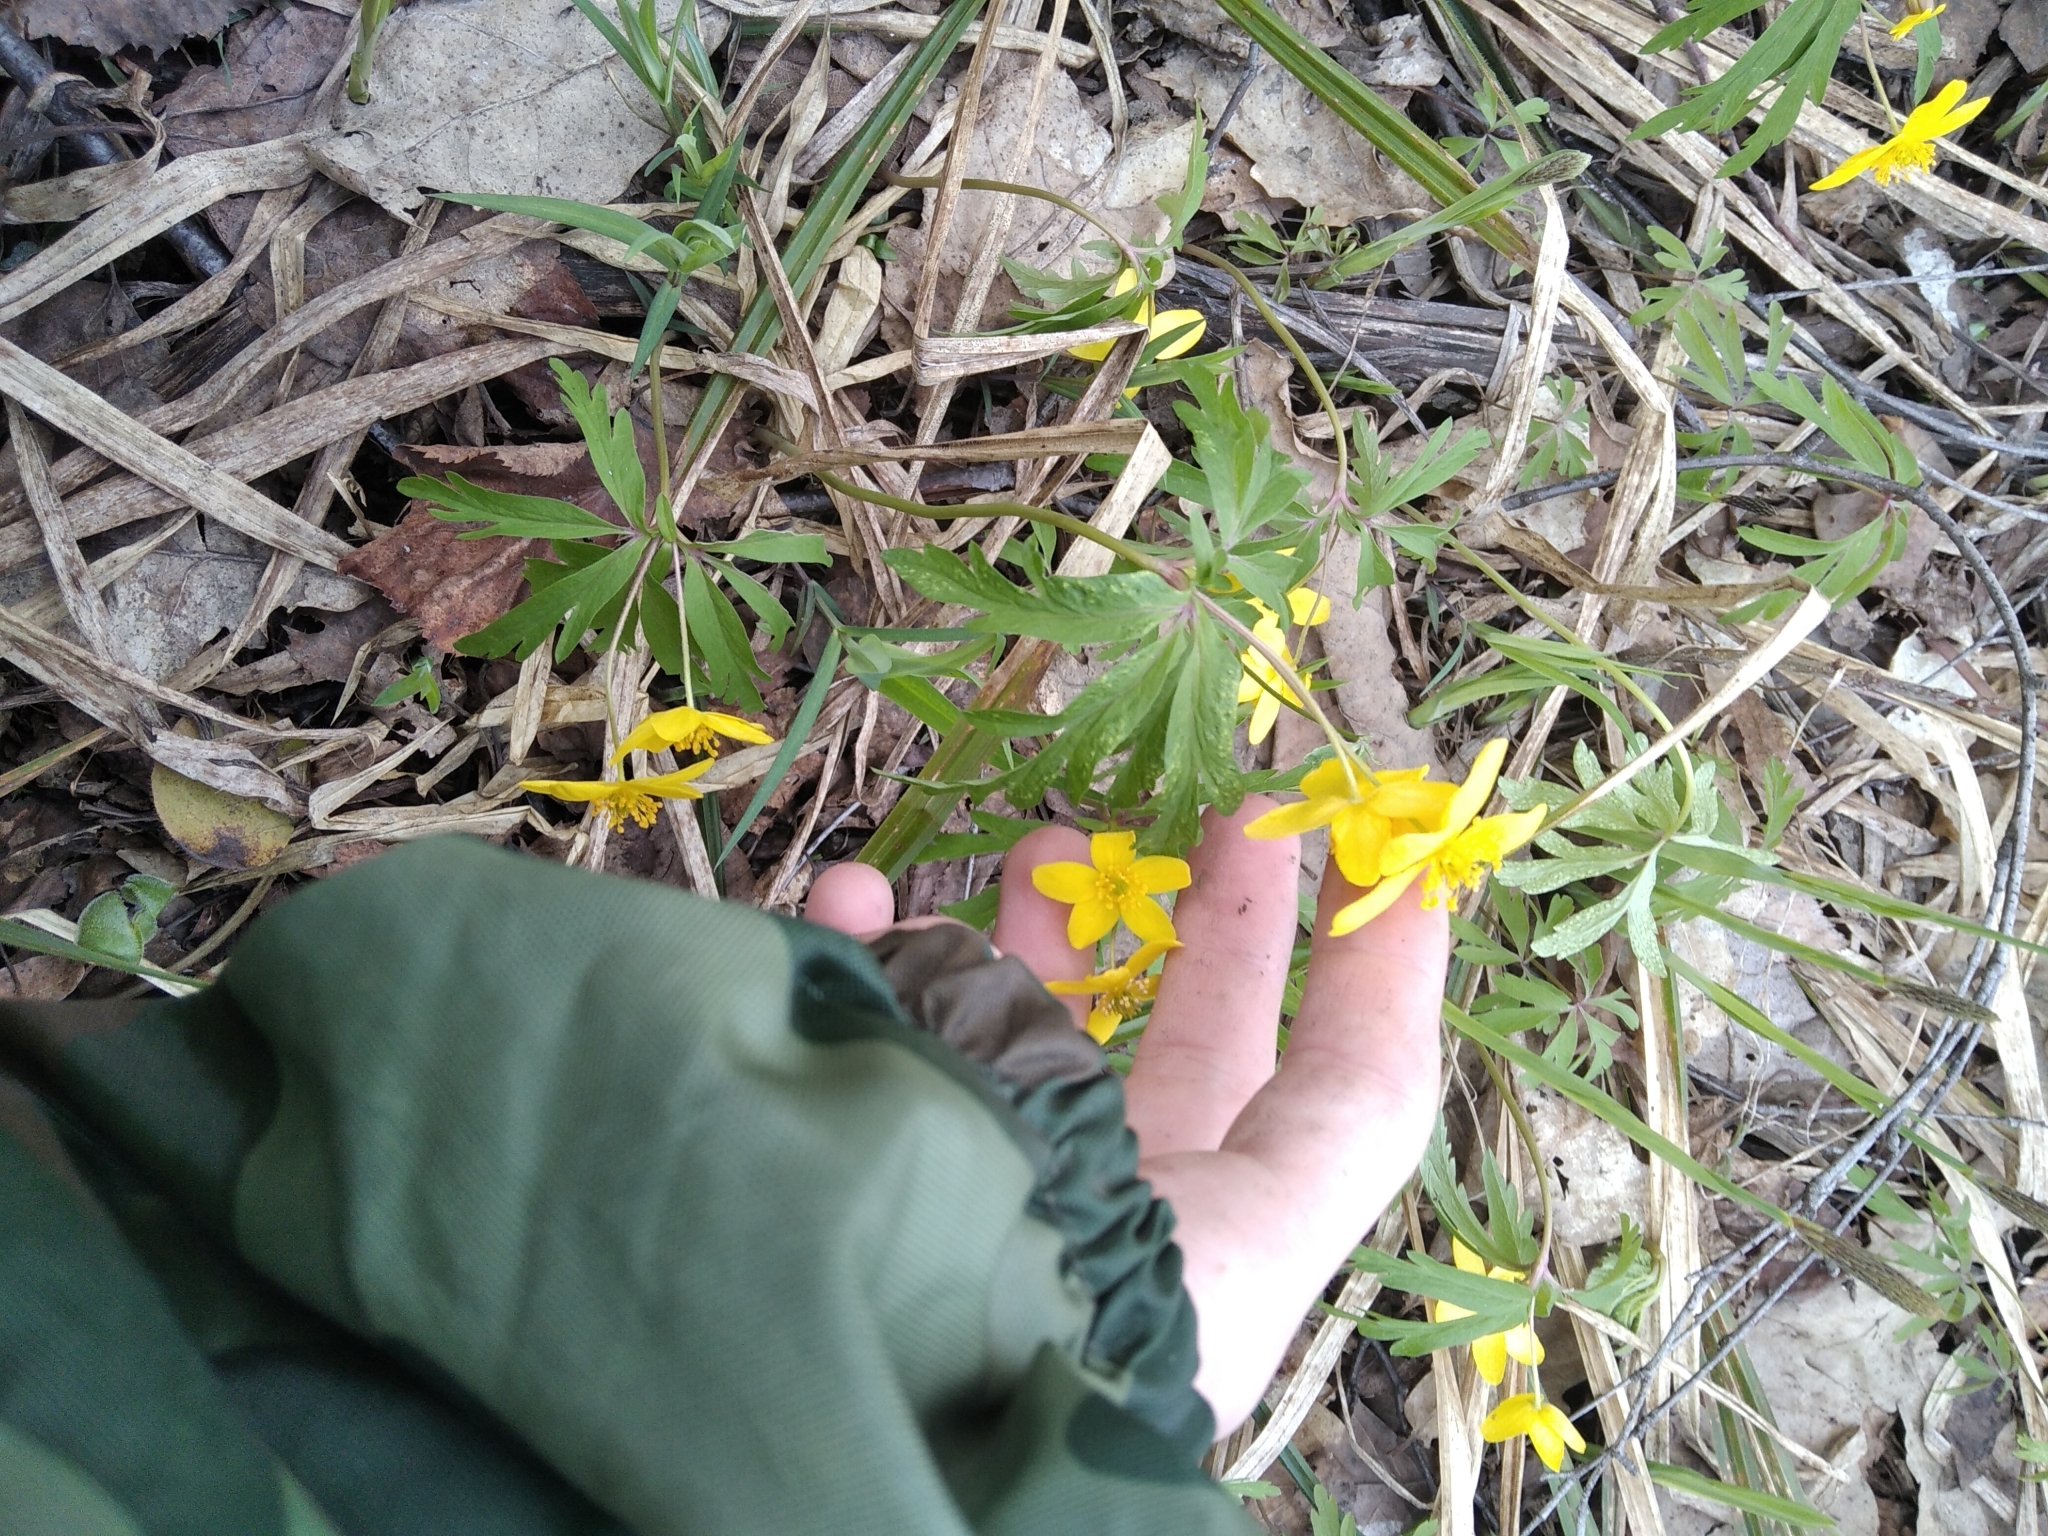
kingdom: Plantae
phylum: Tracheophyta
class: Magnoliopsida
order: Ranunculales
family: Ranunculaceae
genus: Anemone
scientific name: Anemone ranunculoides
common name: Yellow anemone
